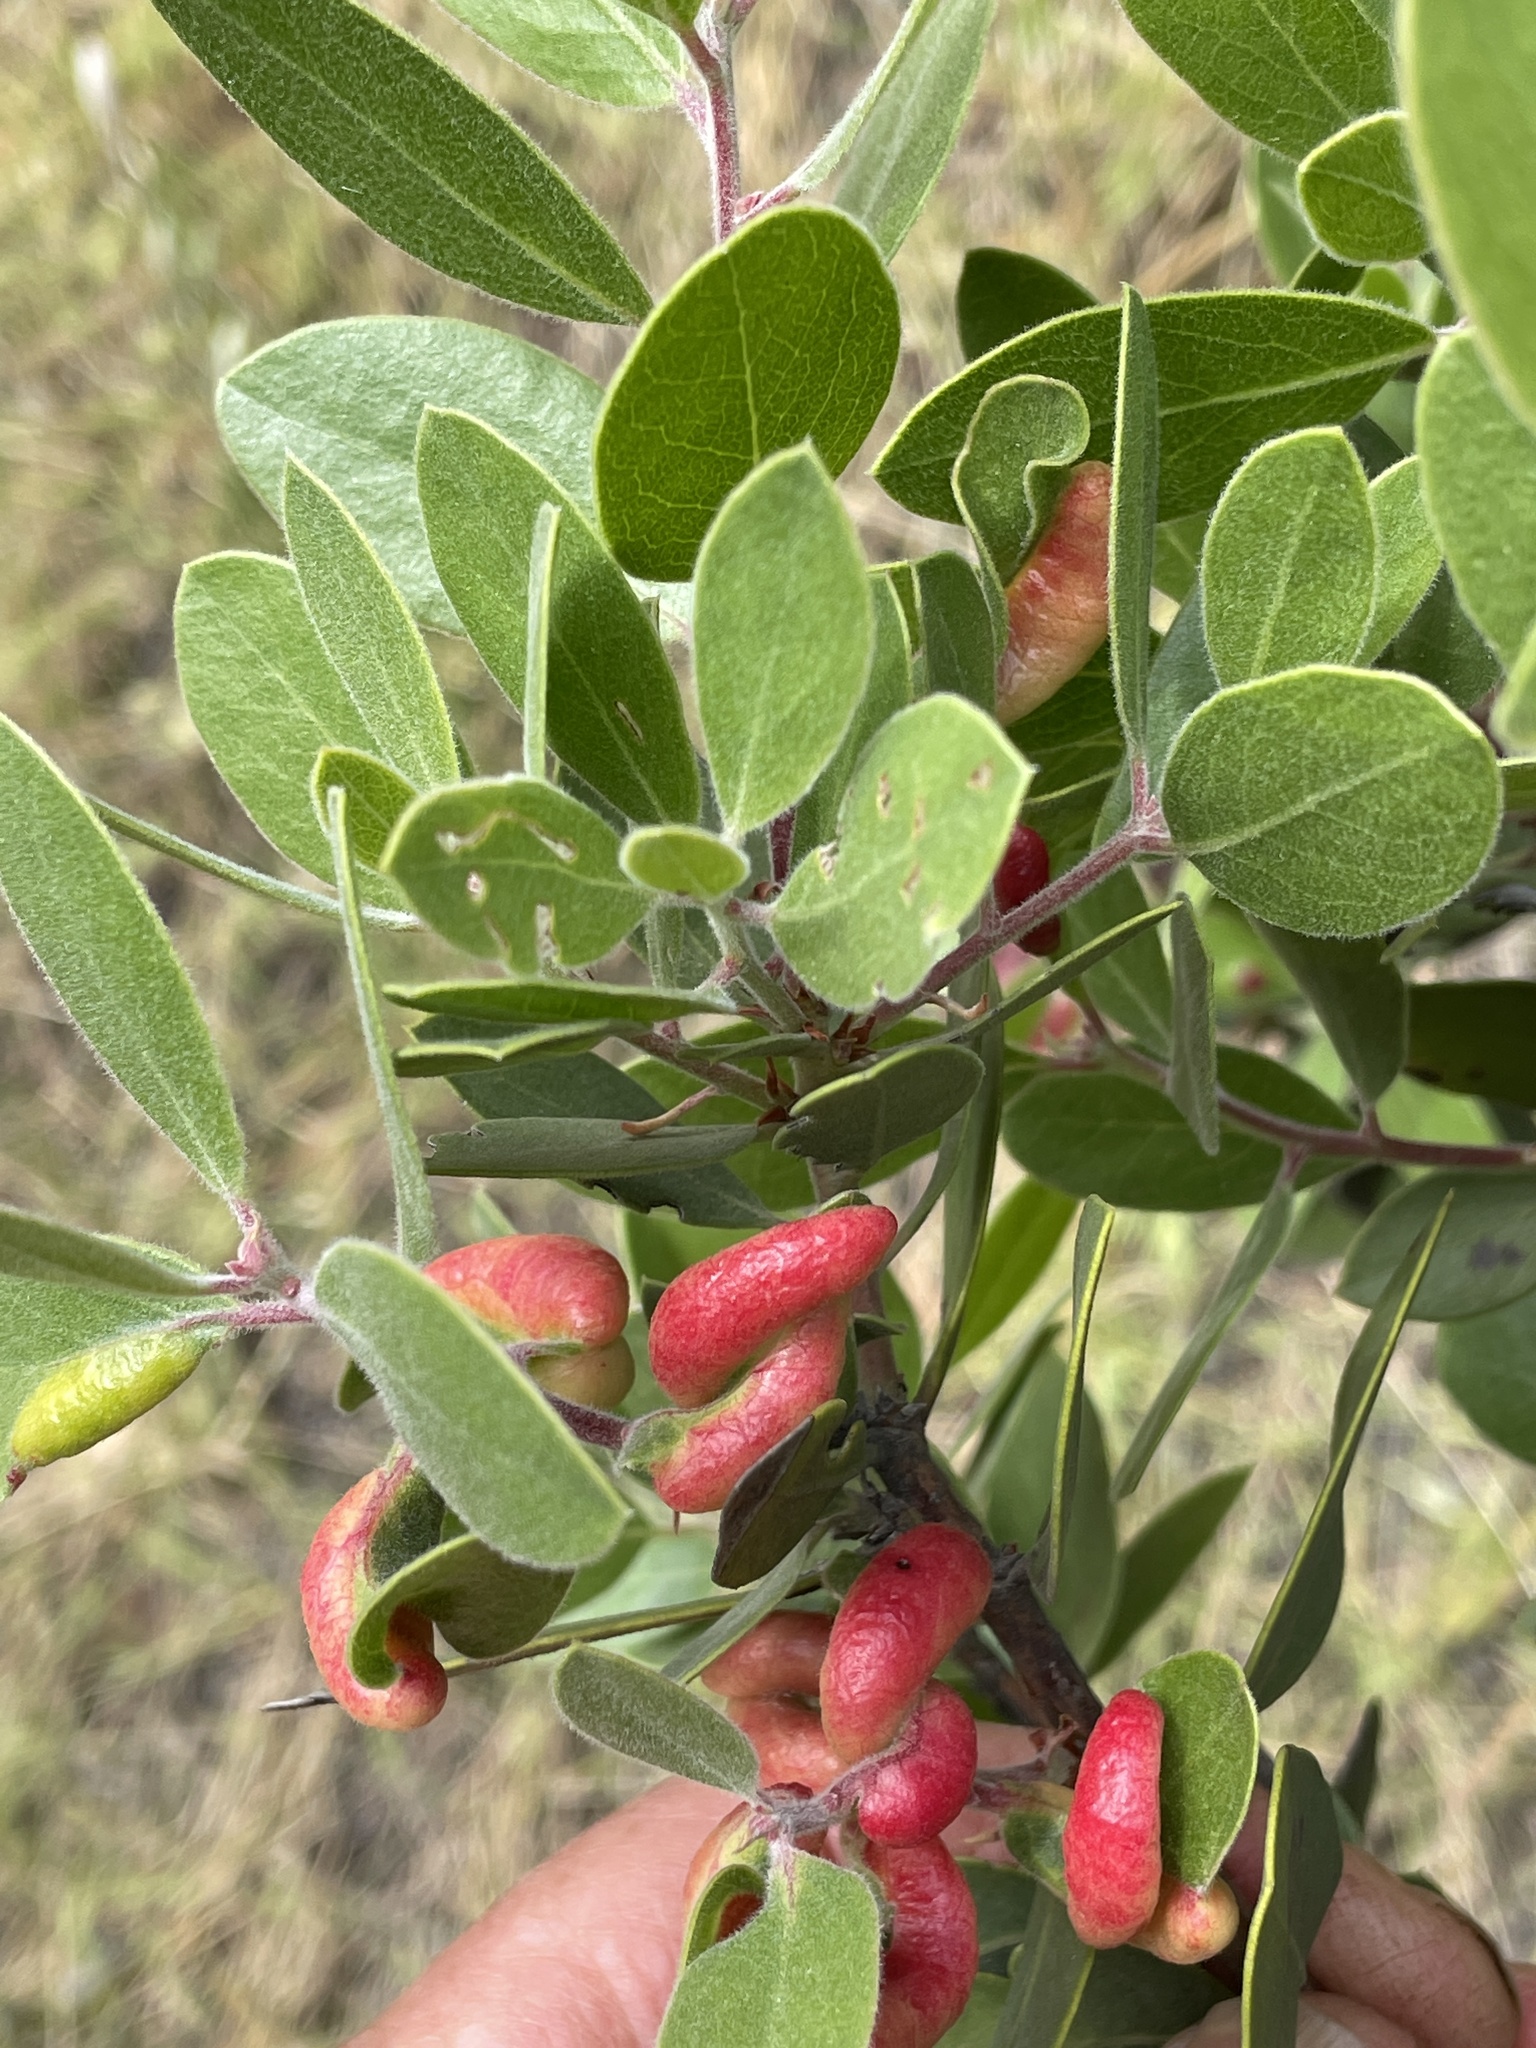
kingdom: Animalia
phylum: Arthropoda
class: Insecta
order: Hemiptera
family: Aphididae
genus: Tamalia
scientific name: Tamalia coweni
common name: Manzanita leafgall aphid
